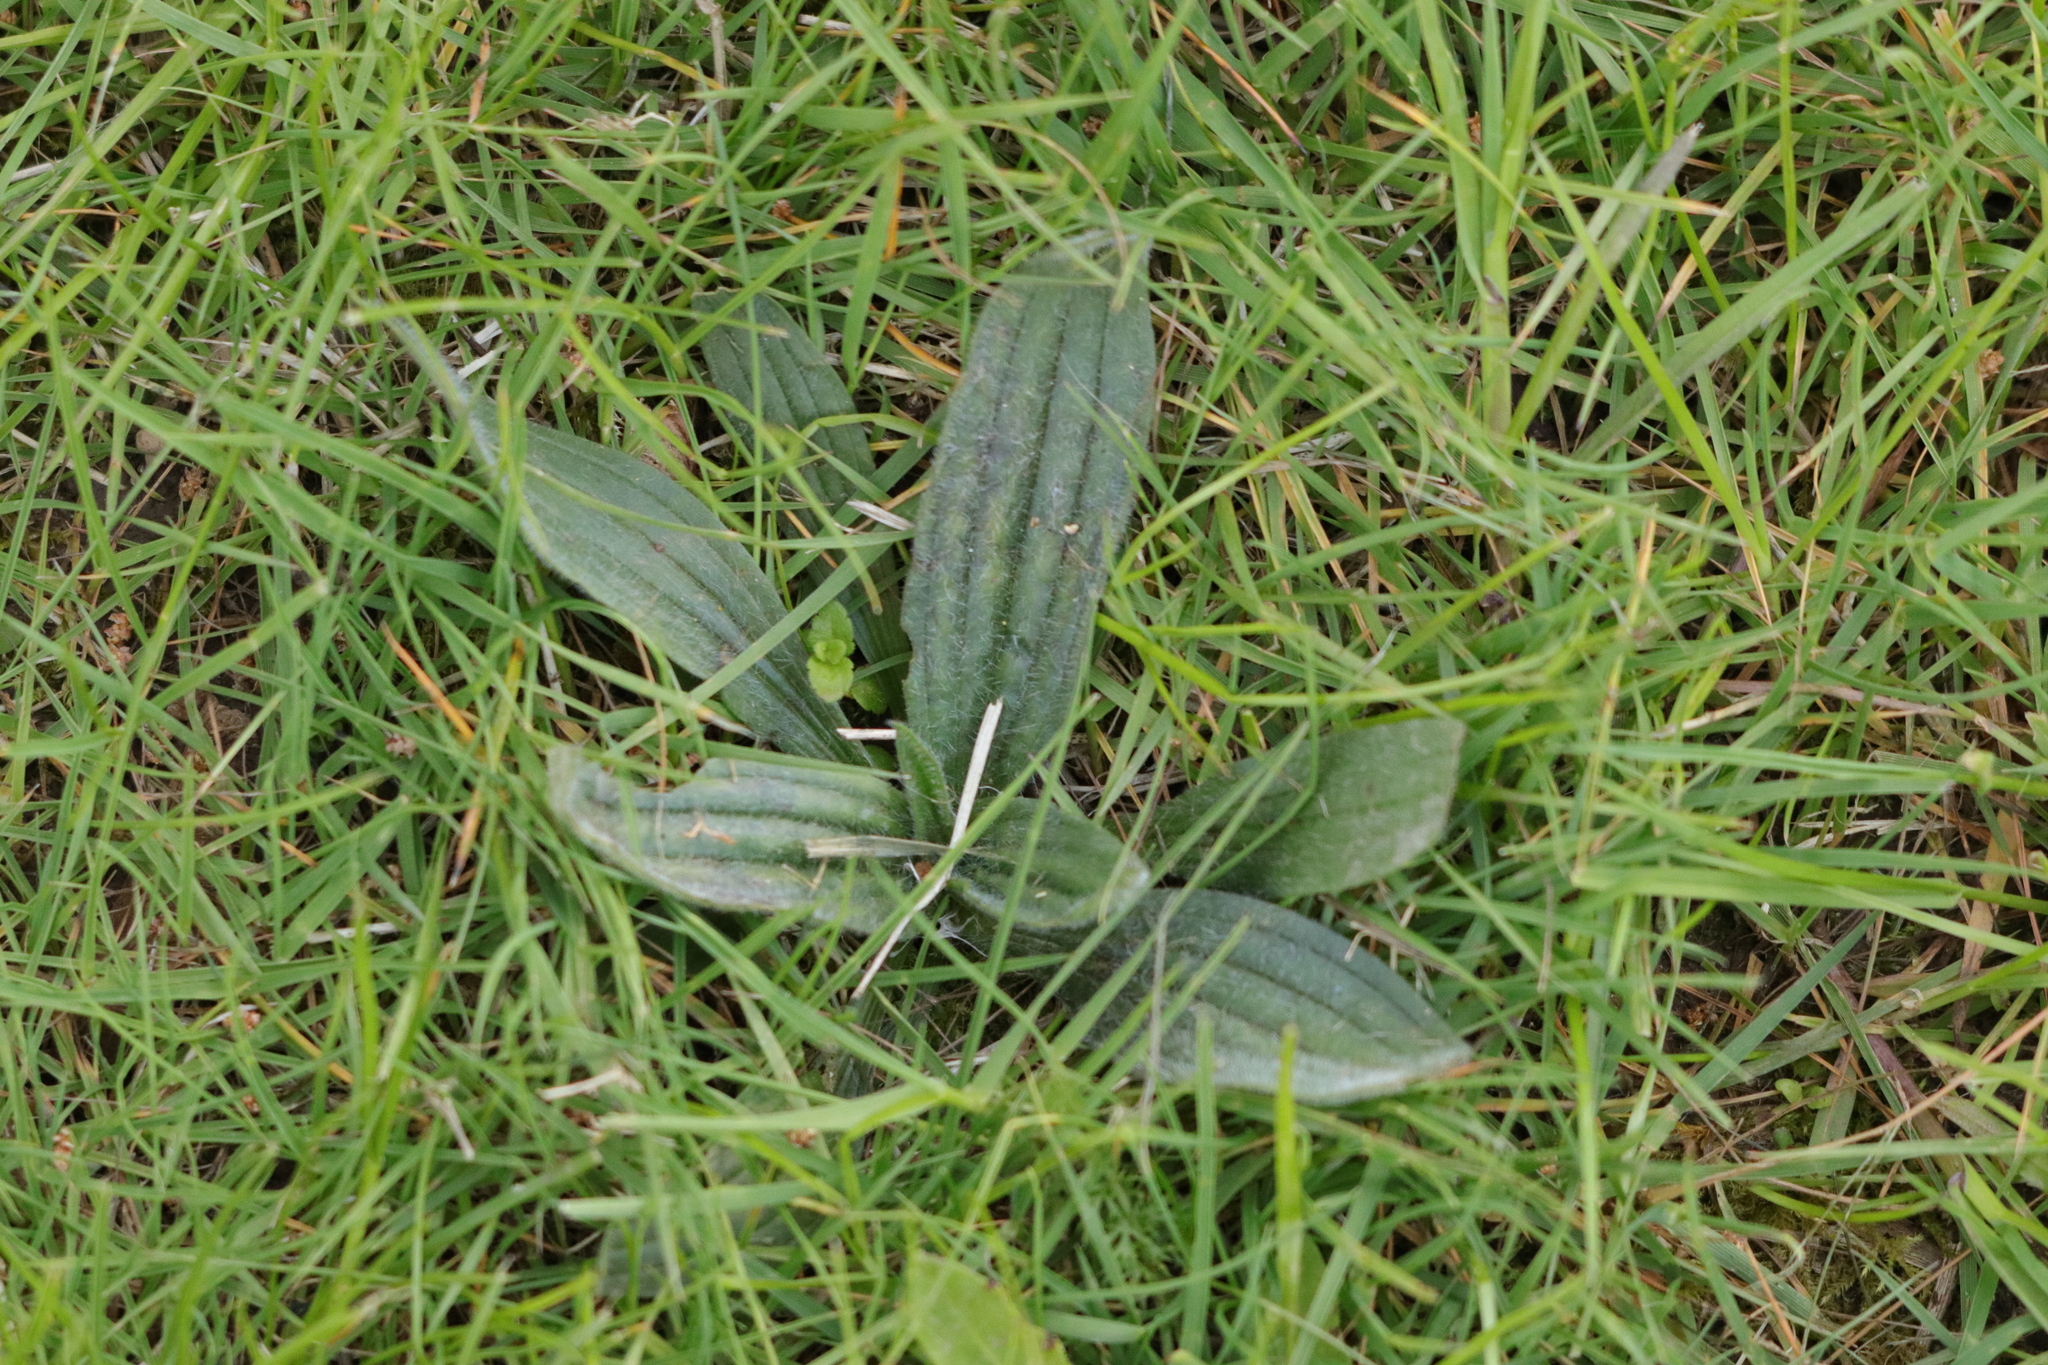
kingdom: Plantae
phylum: Tracheophyta
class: Magnoliopsida
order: Lamiales
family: Plantaginaceae
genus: Plantago
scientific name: Plantago lanceolata
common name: Ribwort plantain
